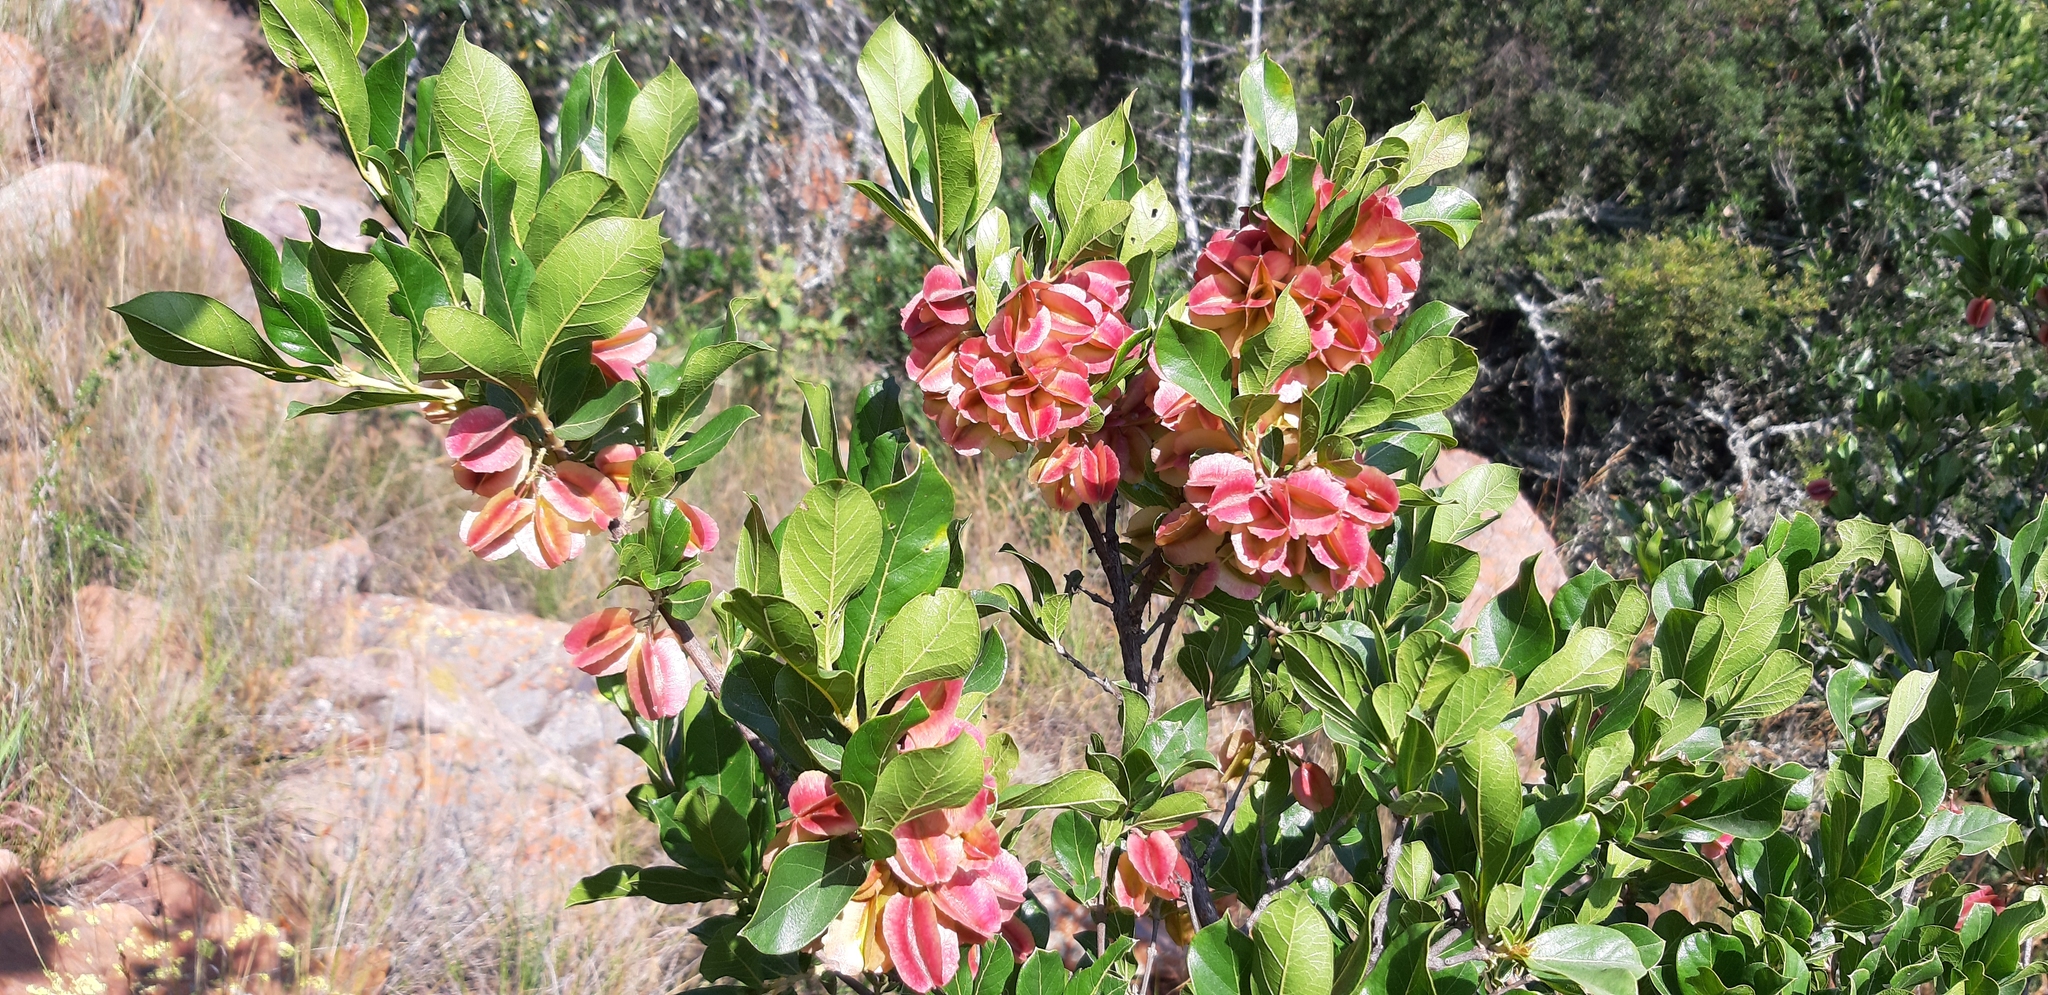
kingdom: Plantae
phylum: Tracheophyta
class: Magnoliopsida
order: Myrtales
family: Combretaceae
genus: Combretum
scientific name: Combretum vendae
